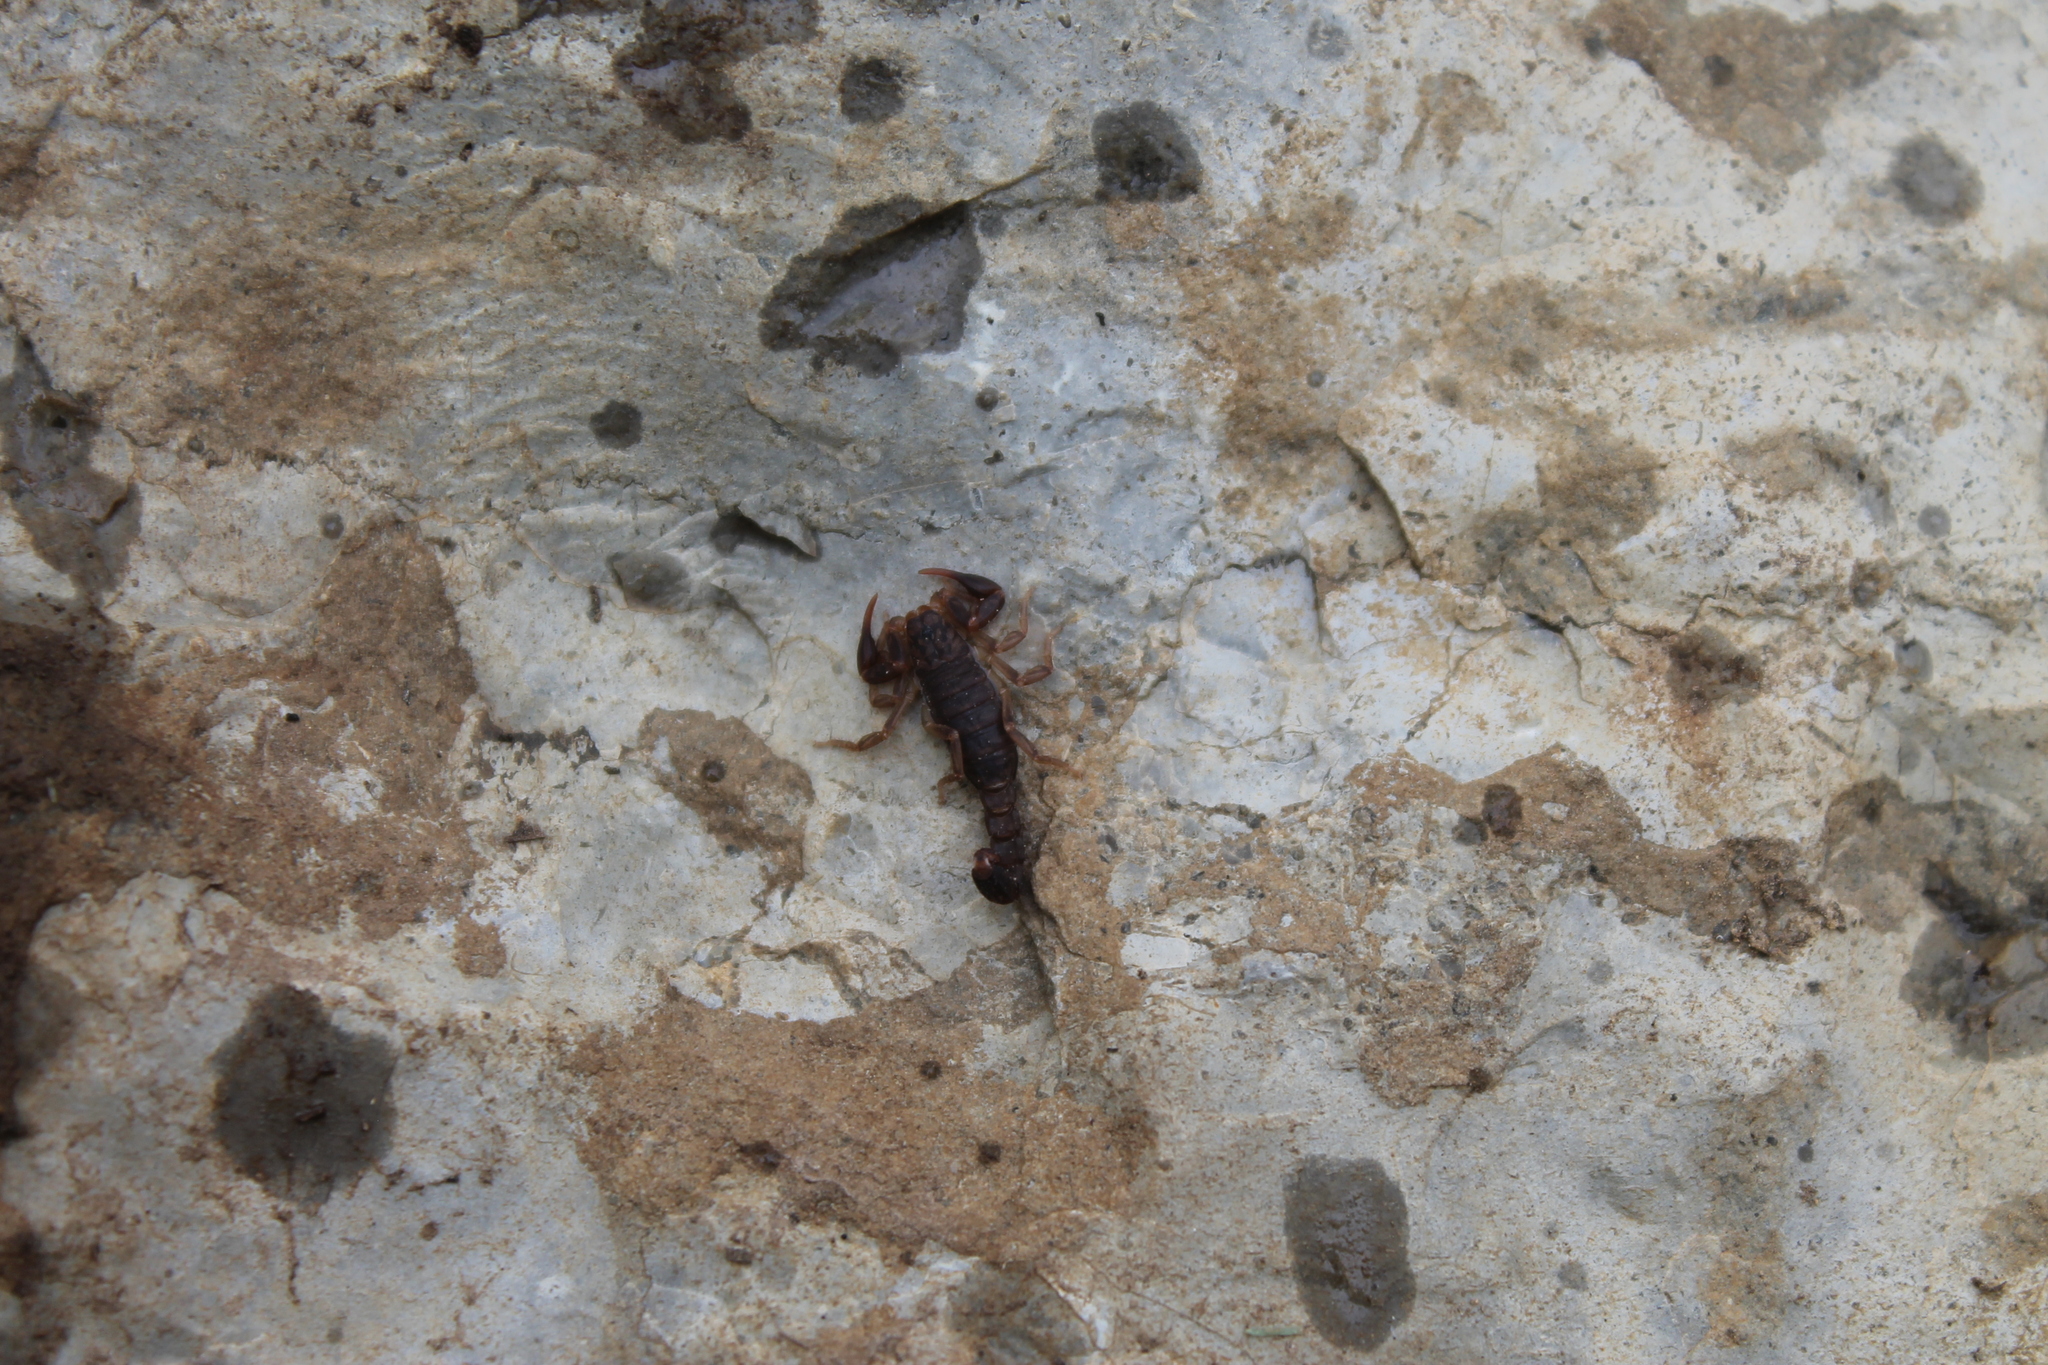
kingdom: Animalia
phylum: Arthropoda
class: Arachnida
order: Scorpiones
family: Vaejovidae
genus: Vaejovis
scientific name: Vaejovis carolinianus
